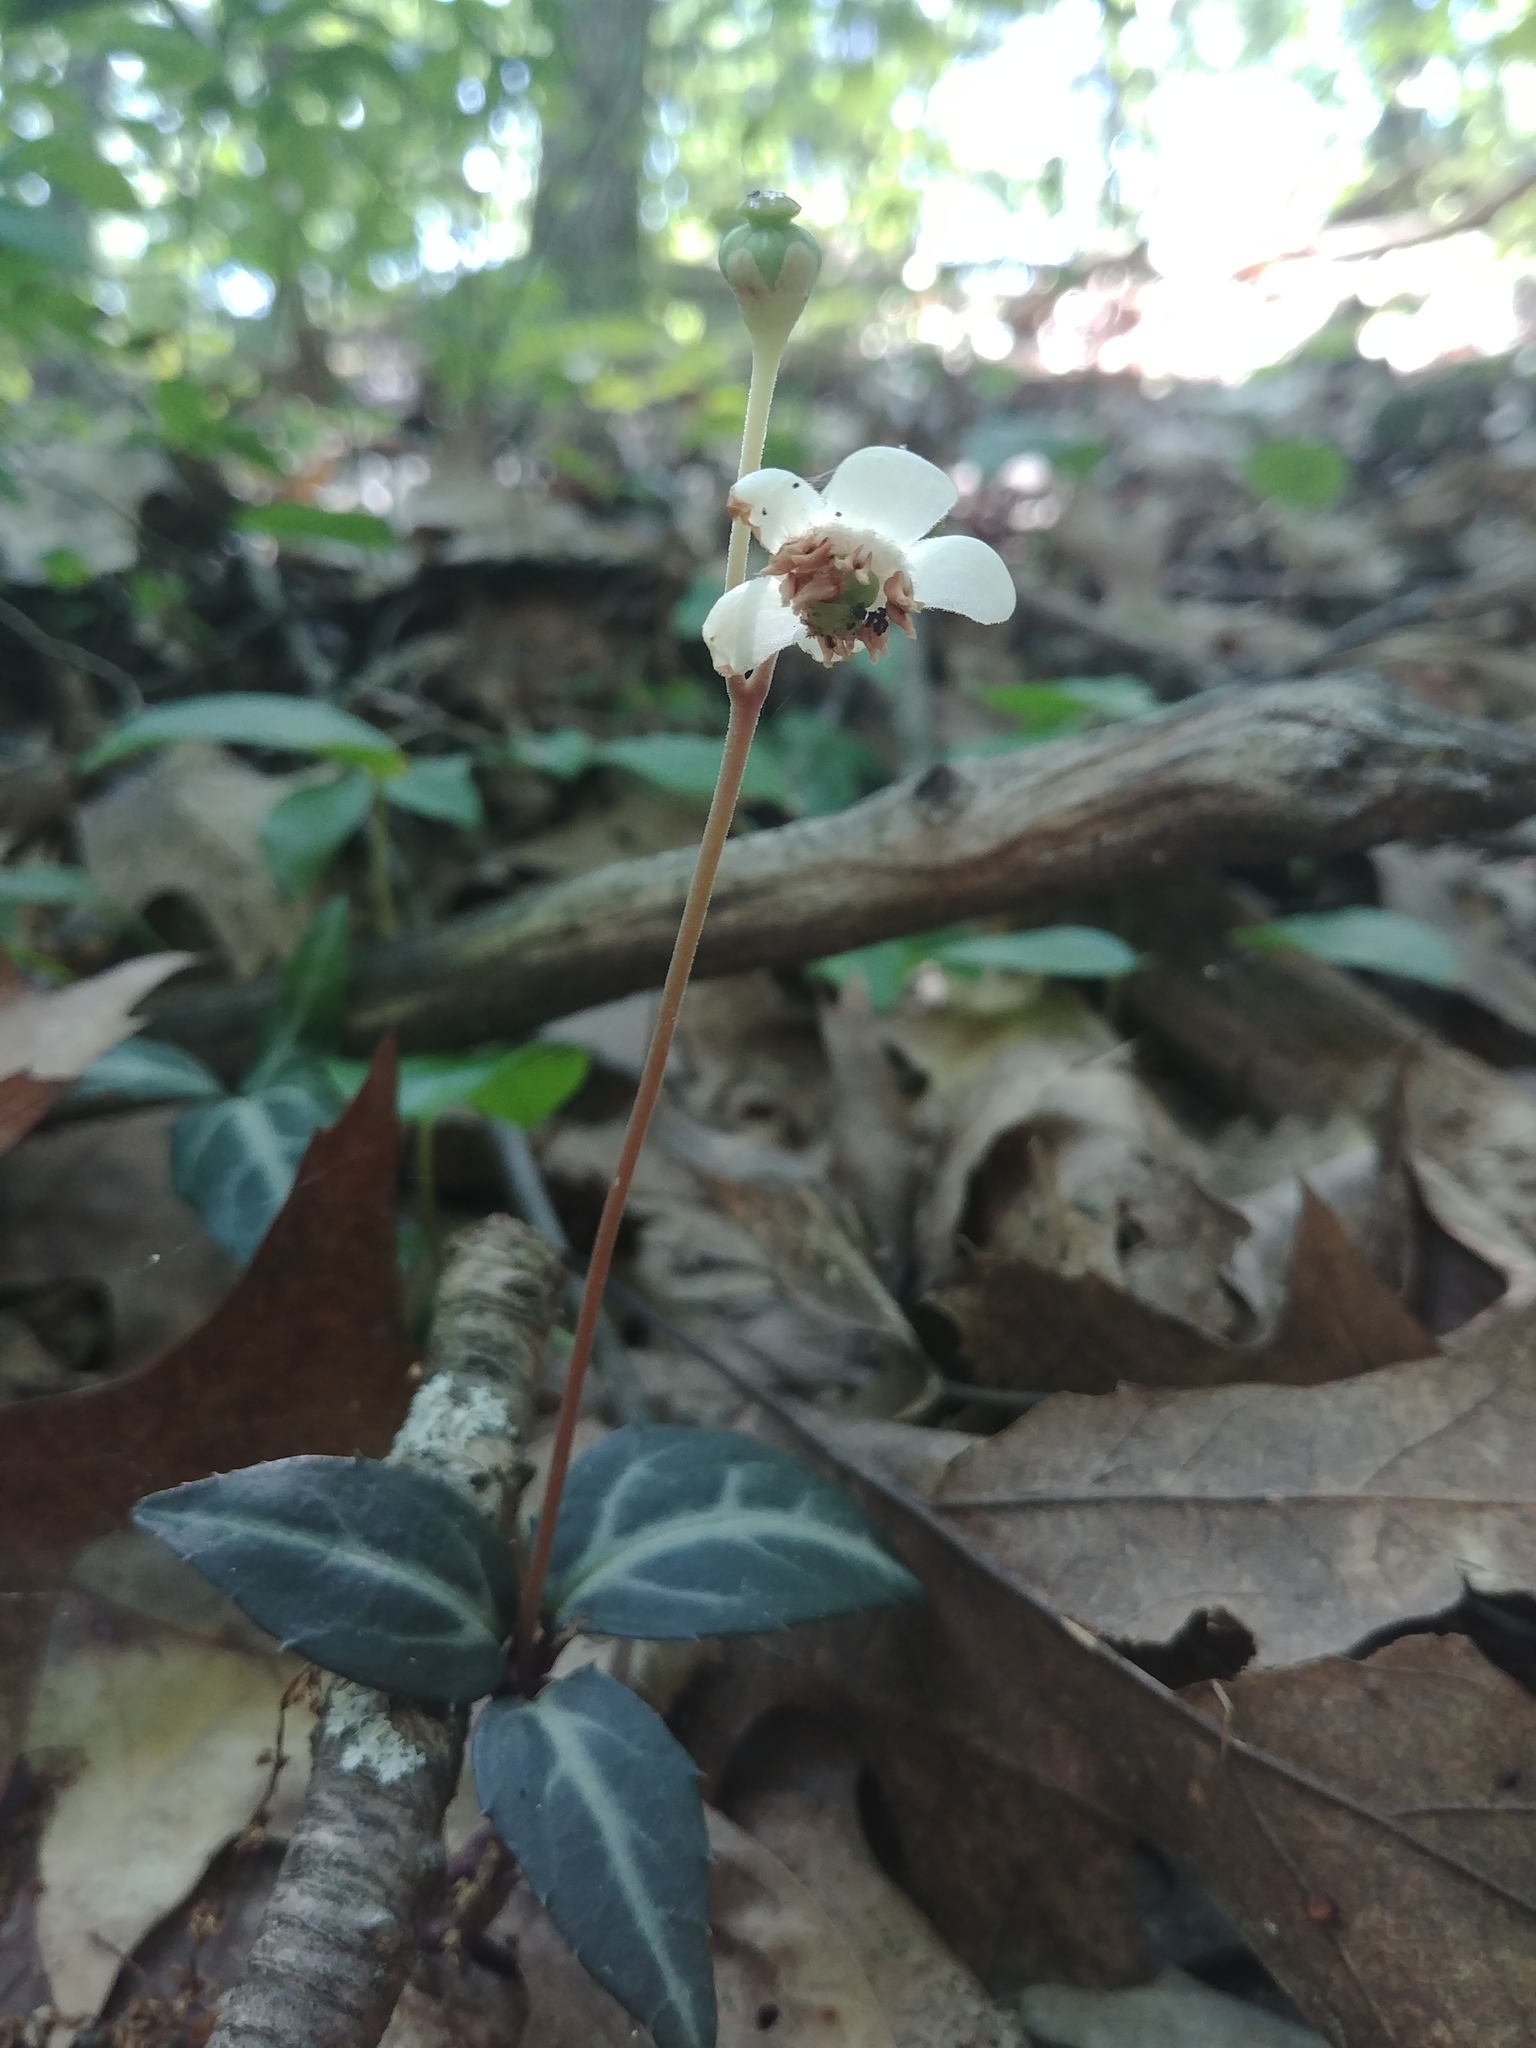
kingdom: Plantae
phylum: Tracheophyta
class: Magnoliopsida
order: Ericales
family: Ericaceae
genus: Chimaphila
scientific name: Chimaphila maculata
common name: Spotted pipsissewa
